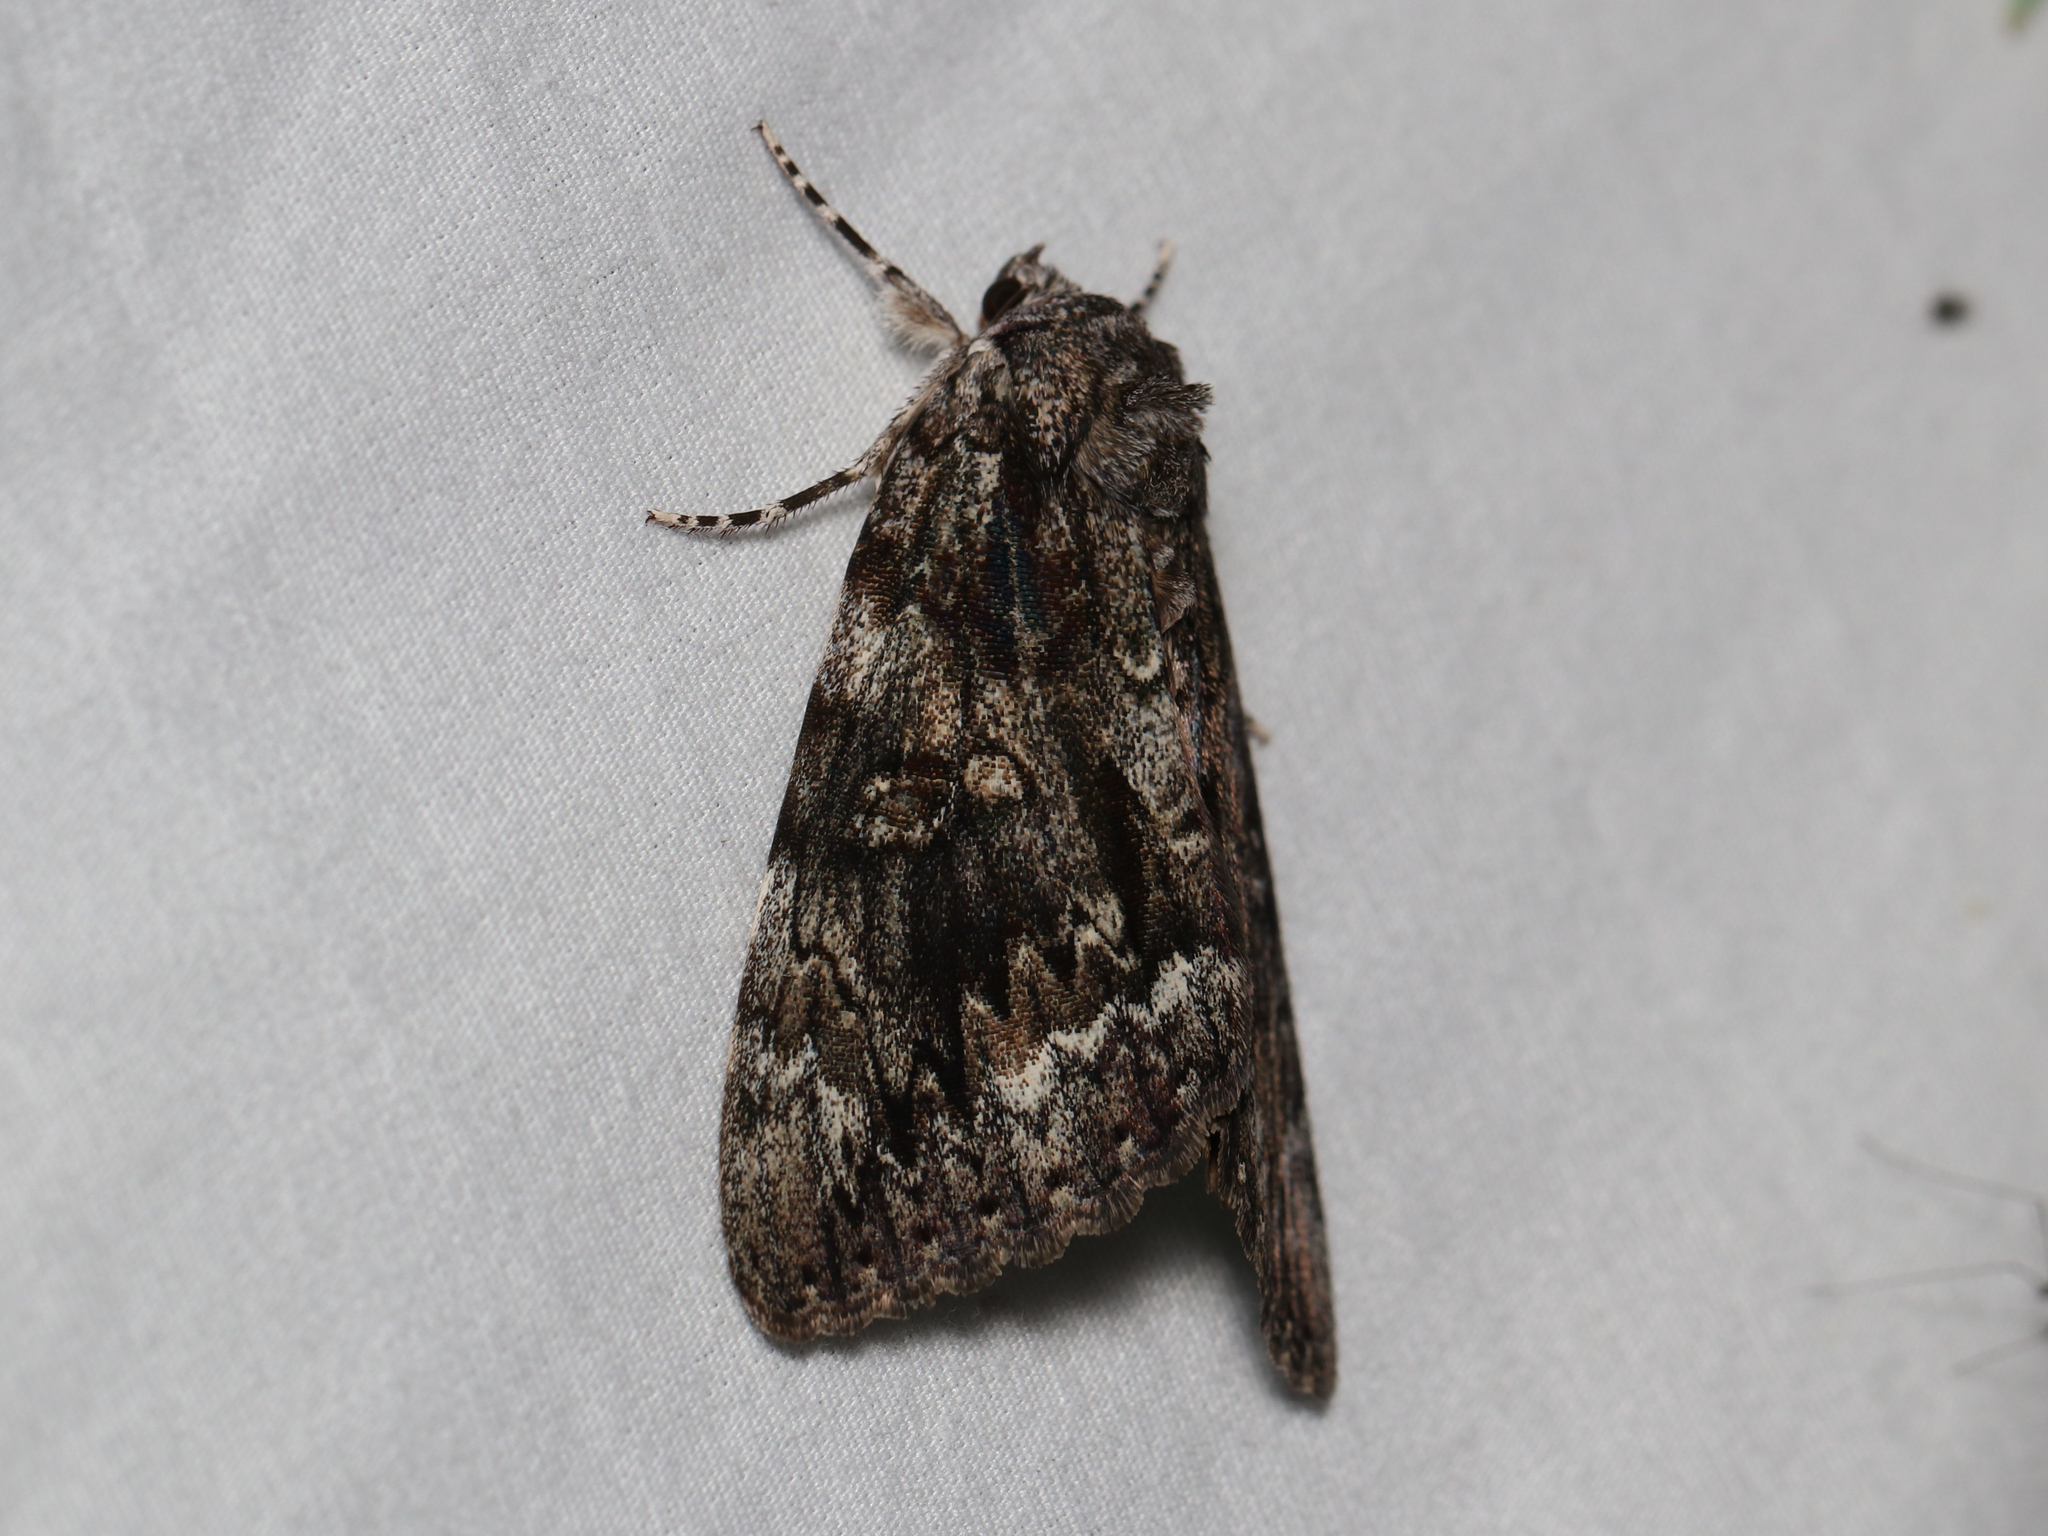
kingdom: Animalia
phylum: Arthropoda
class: Insecta
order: Lepidoptera
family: Erebidae
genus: Catocala
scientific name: Catocala palaeogama
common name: Oldwife underwing
